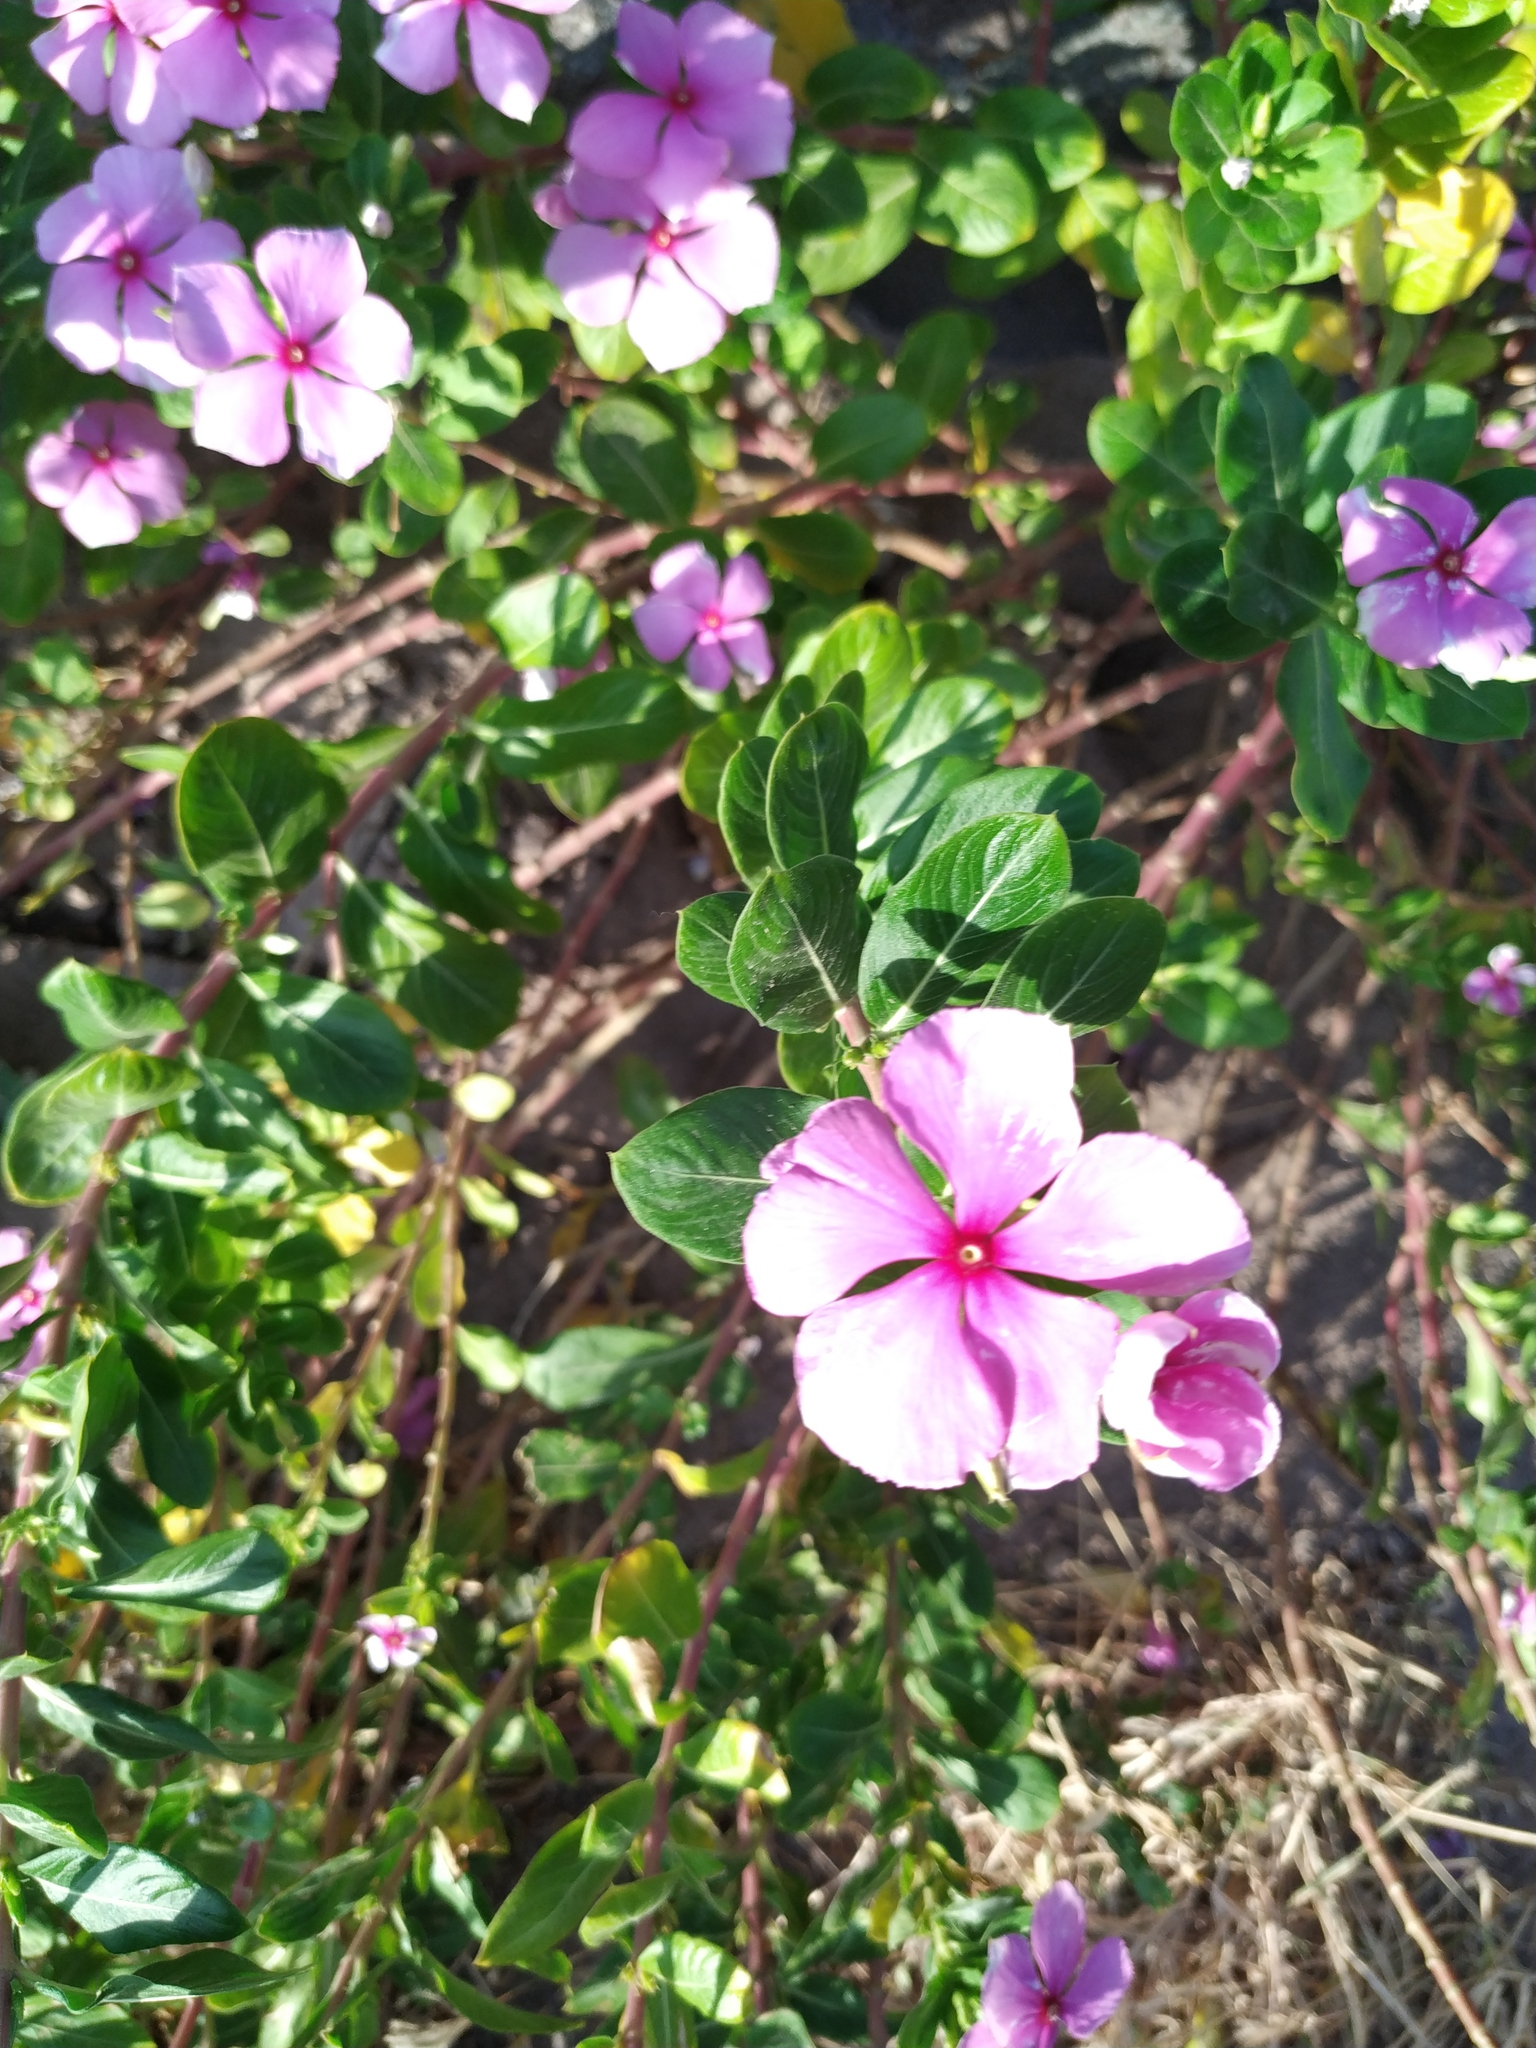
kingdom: Plantae
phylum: Tracheophyta
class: Magnoliopsida
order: Gentianales
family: Apocynaceae
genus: Catharanthus
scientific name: Catharanthus roseus
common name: Madagascar periwinkle
